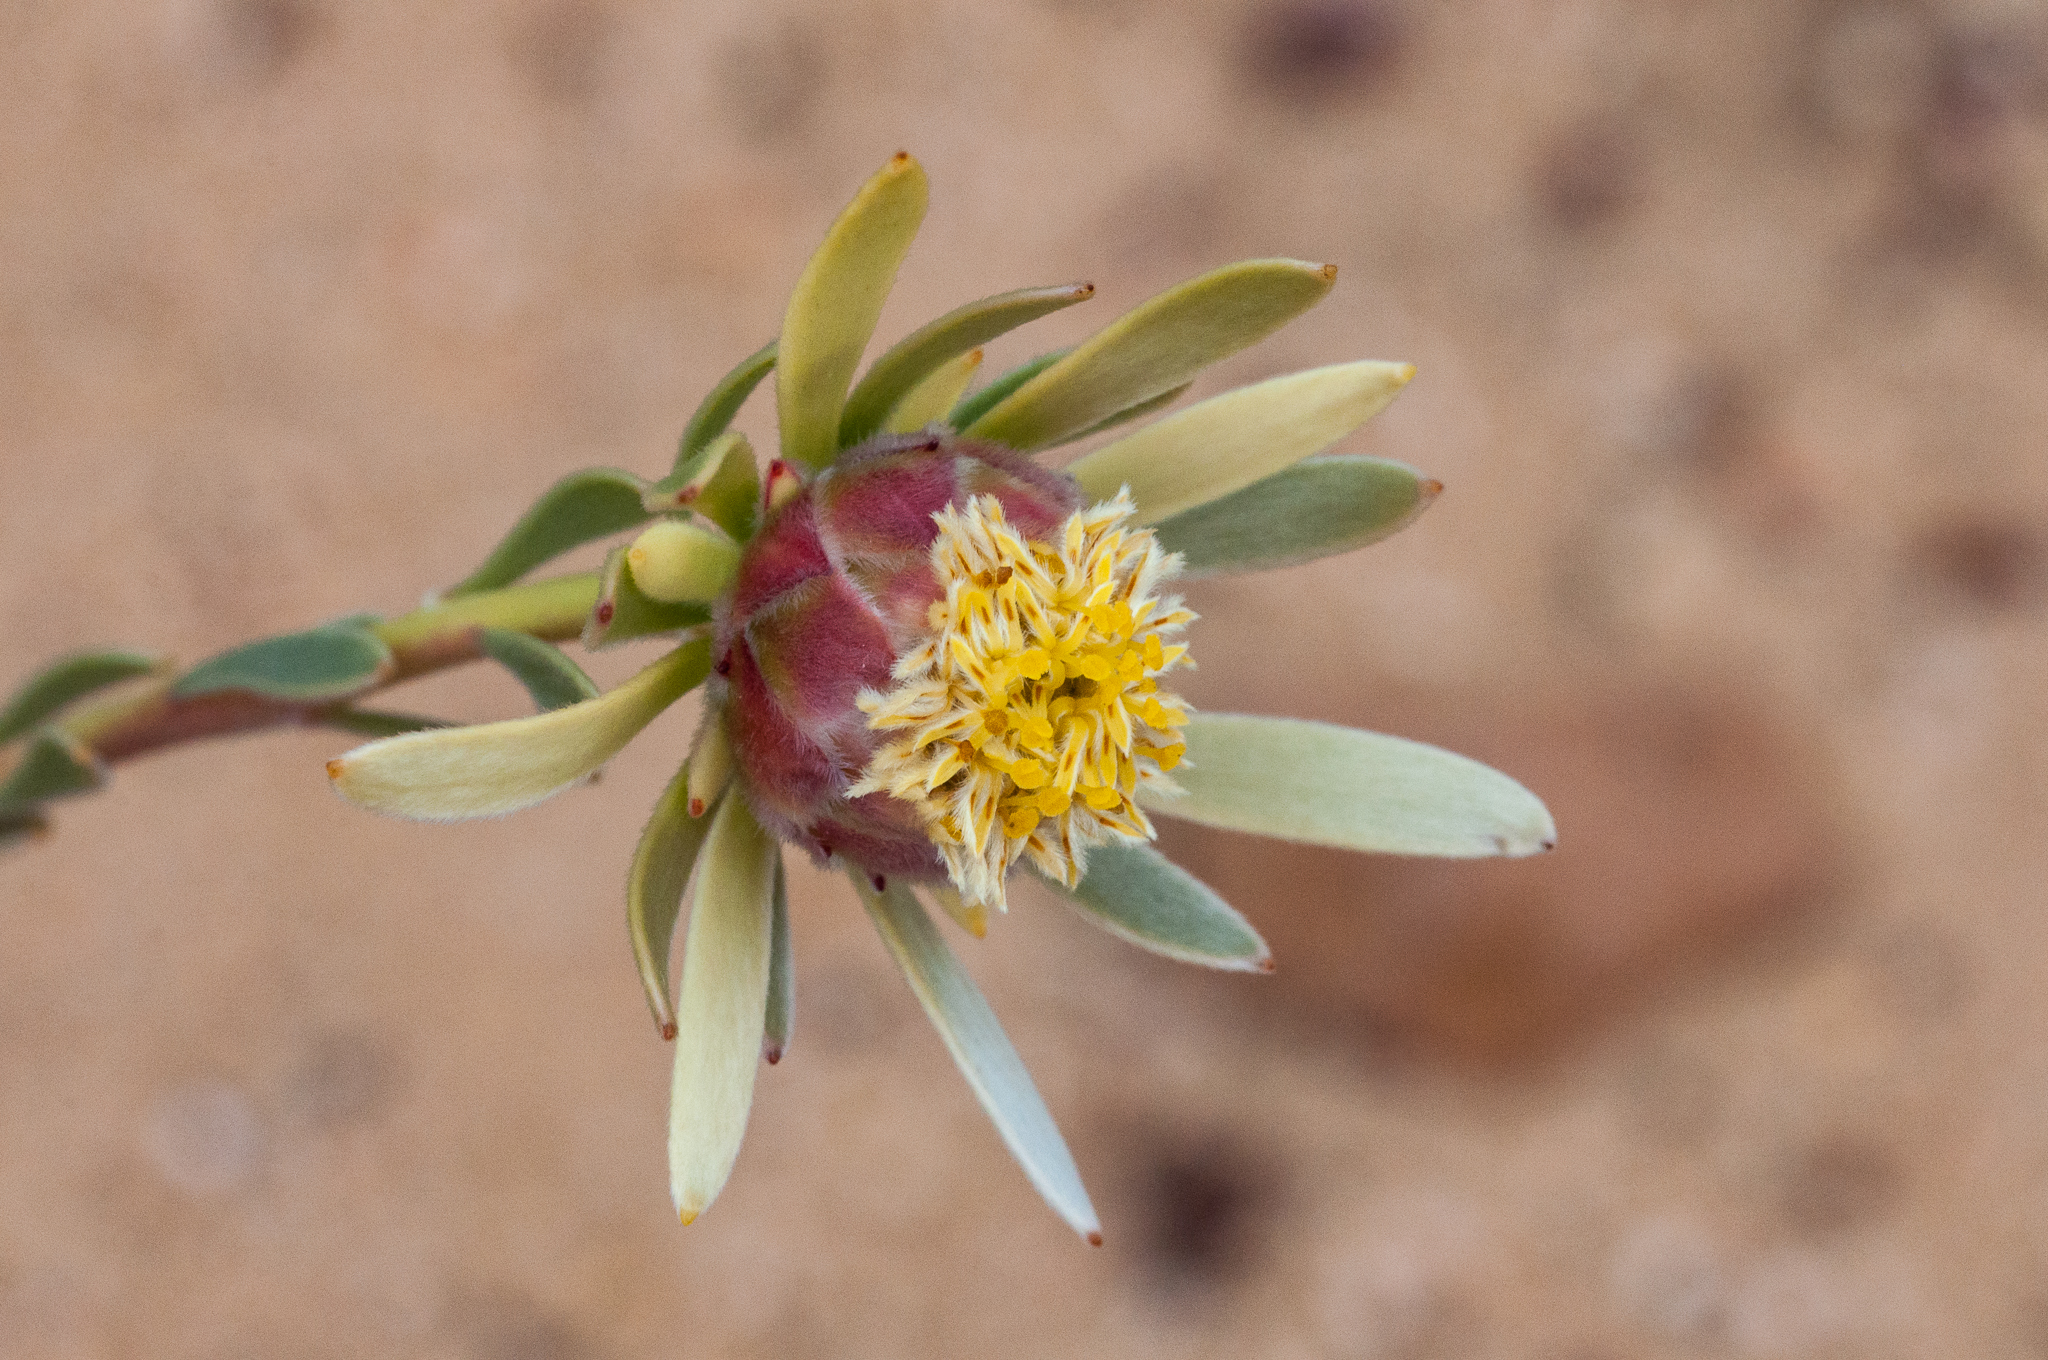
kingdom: Plantae
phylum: Tracheophyta
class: Magnoliopsida
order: Proteales
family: Proteaceae
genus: Leucadendron
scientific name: Leucadendron nitidum
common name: Bokkeveld conebush
